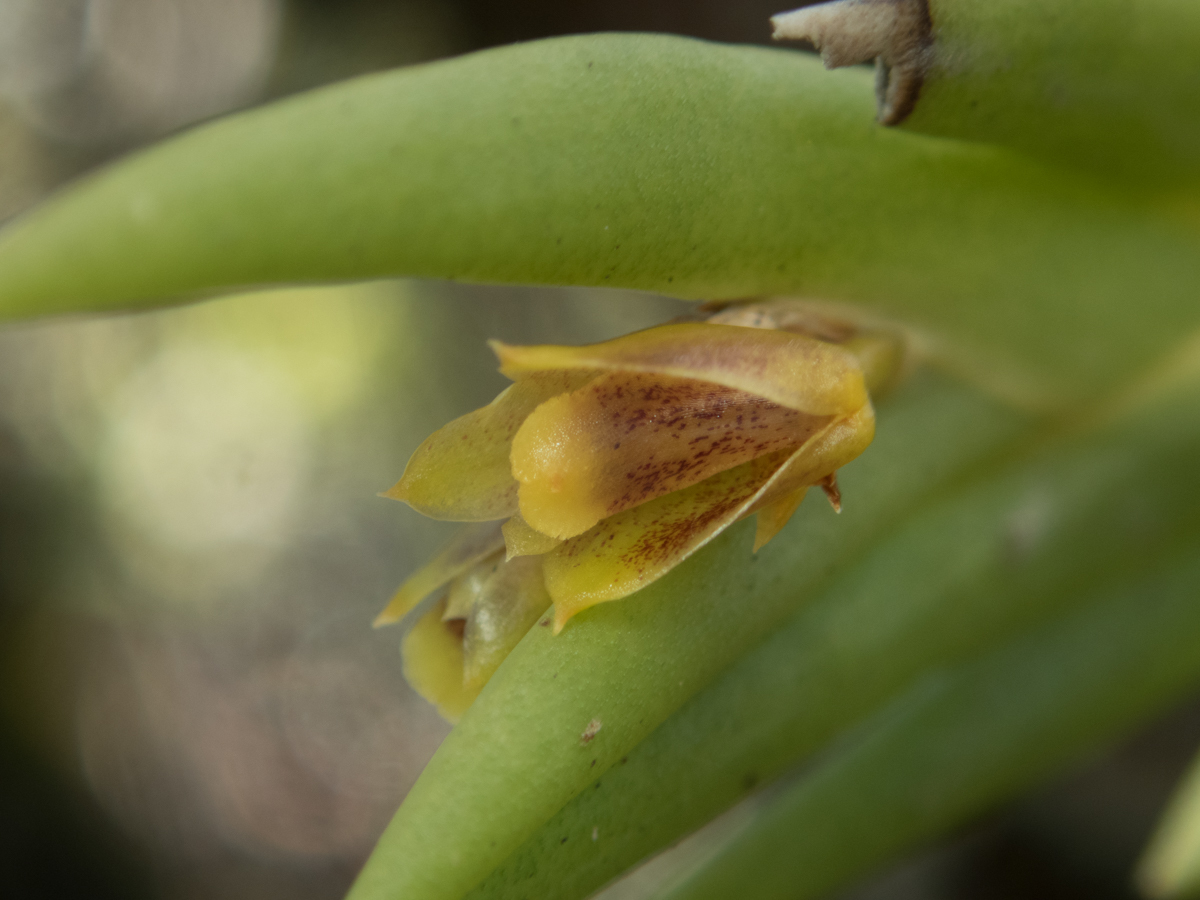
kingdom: Plantae
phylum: Tracheophyta
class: Liliopsida
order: Asparagales
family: Orchidaceae
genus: Oxystophyllum
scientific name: Oxystophyllum carnosum
